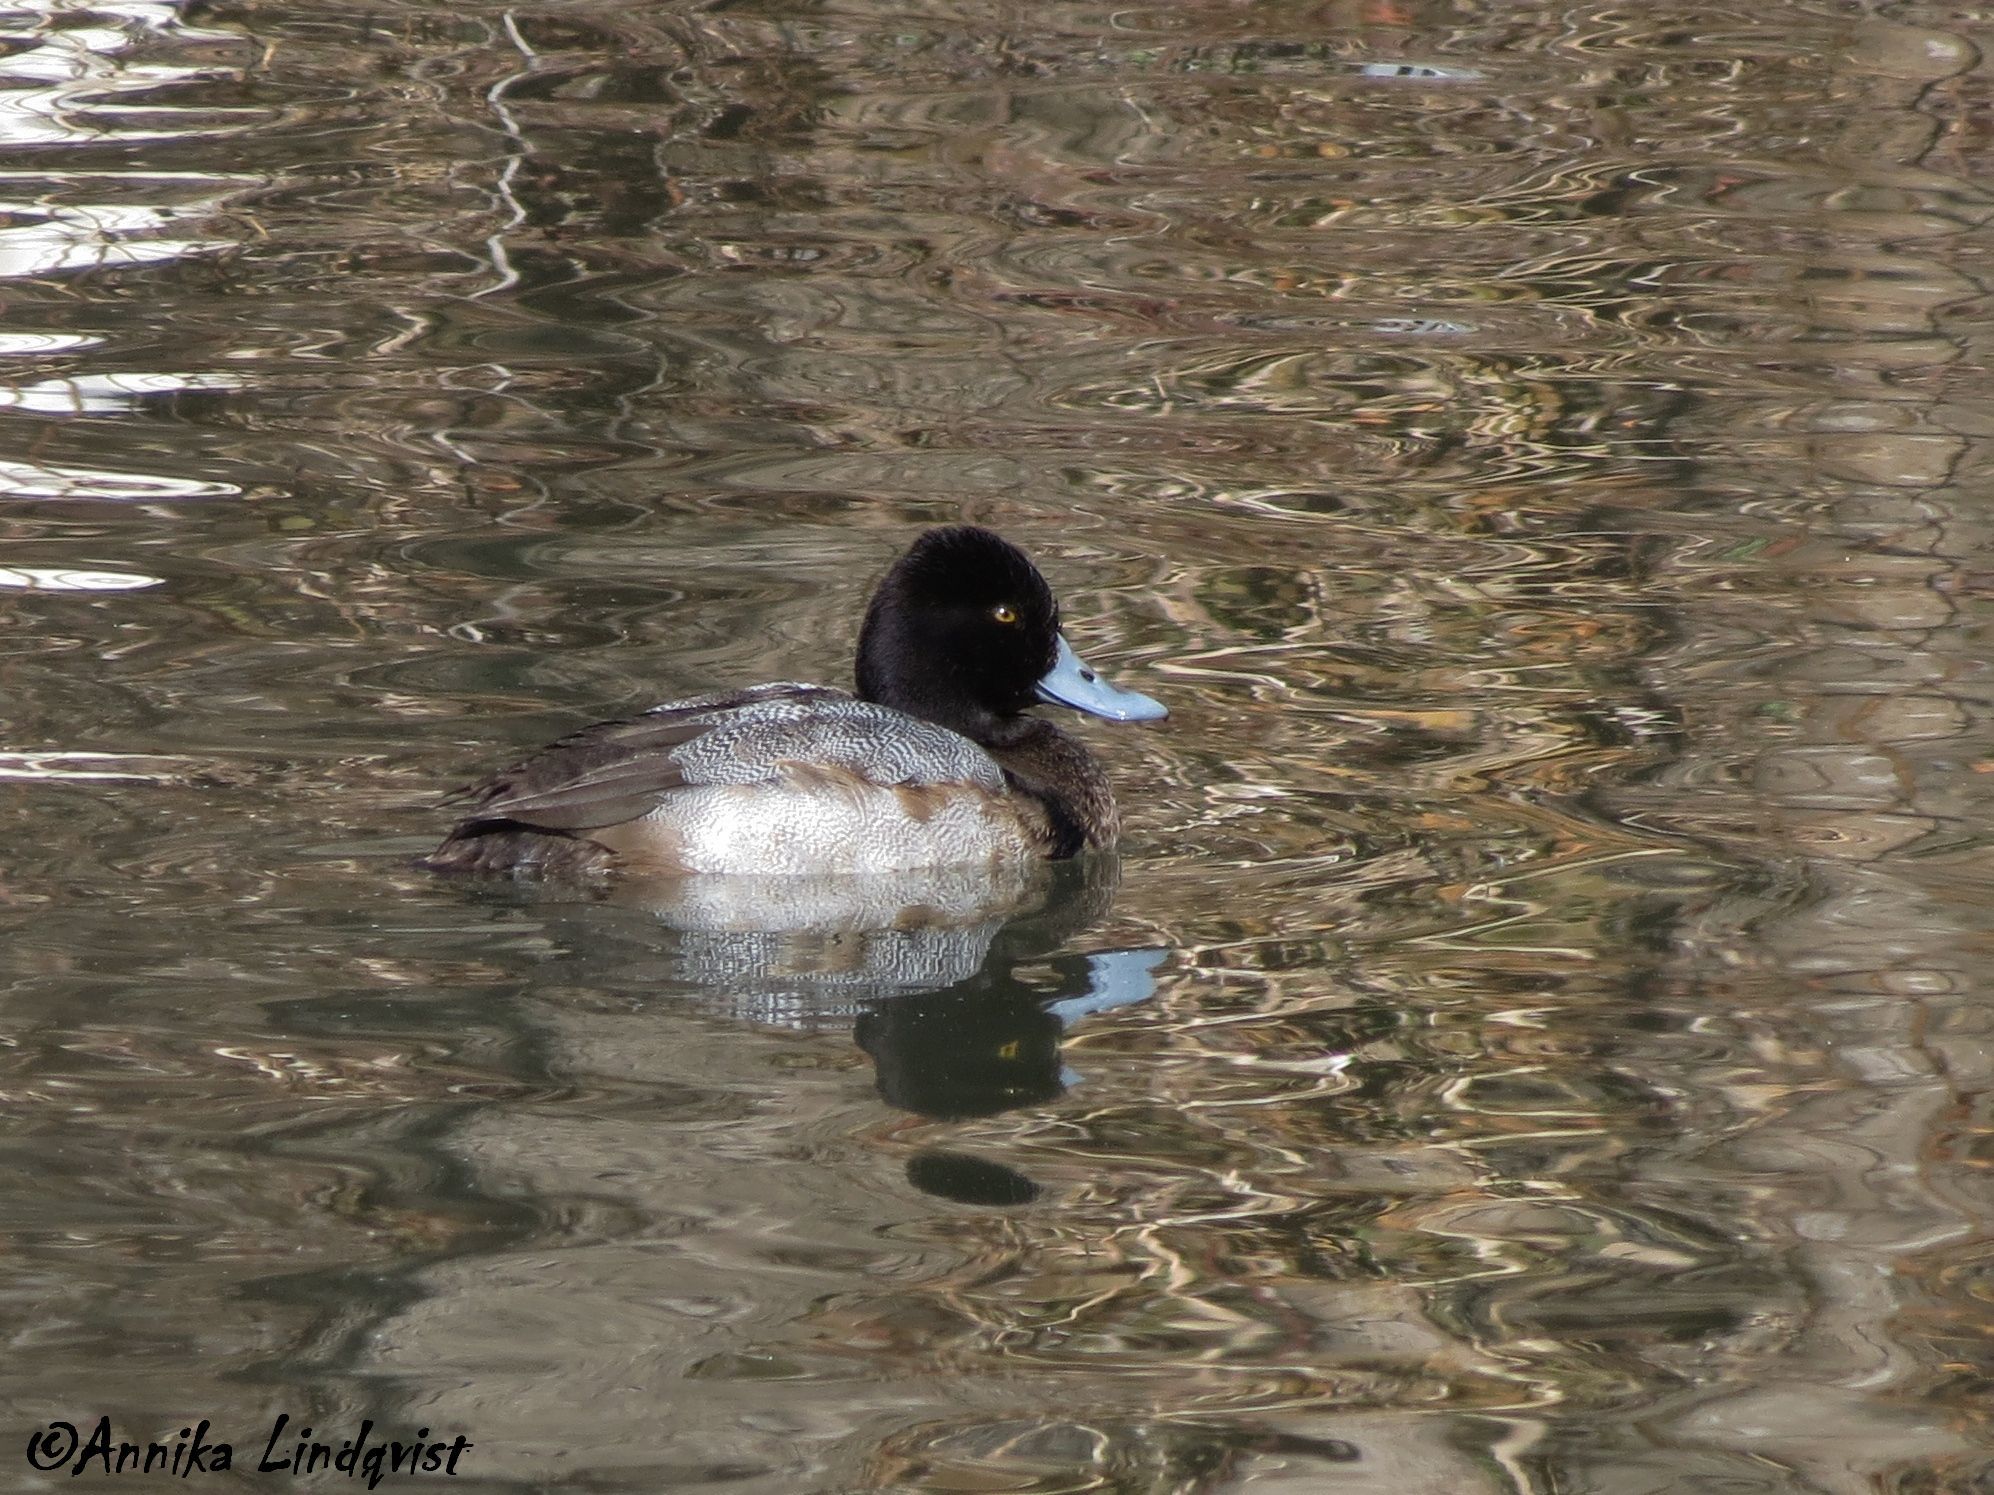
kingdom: Animalia
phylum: Chordata
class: Aves
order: Anseriformes
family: Anatidae
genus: Aythya
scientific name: Aythya affinis
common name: Lesser scaup
